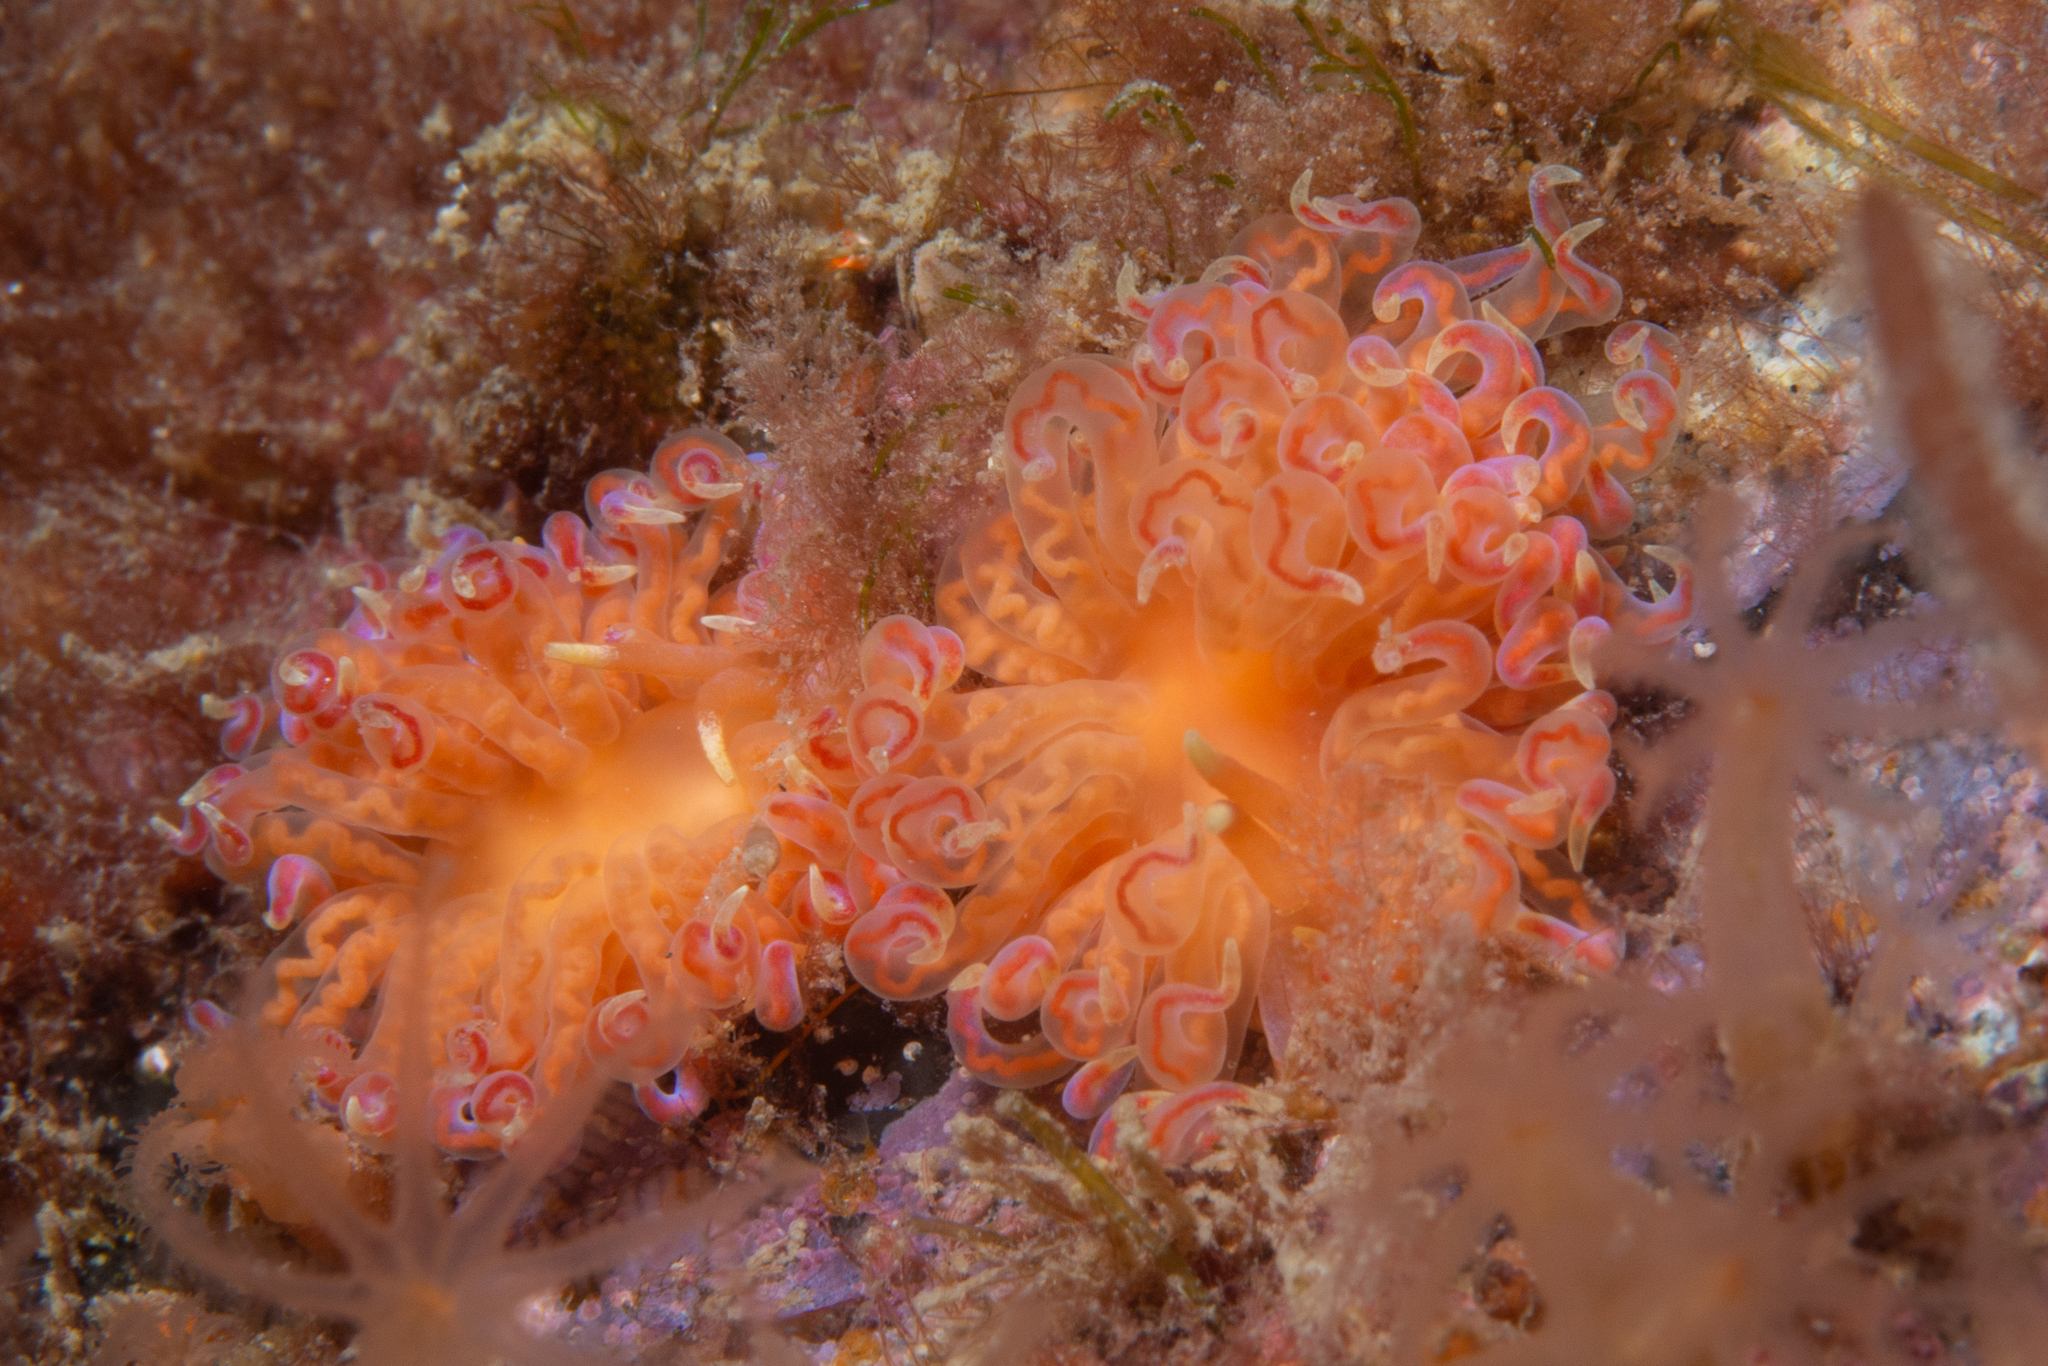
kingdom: Animalia
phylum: Mollusca
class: Gastropoda
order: Nudibranchia
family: Myrrhinidae
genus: Phyllodesmium
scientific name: Phyllodesmium poindimiei
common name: Sea slug
